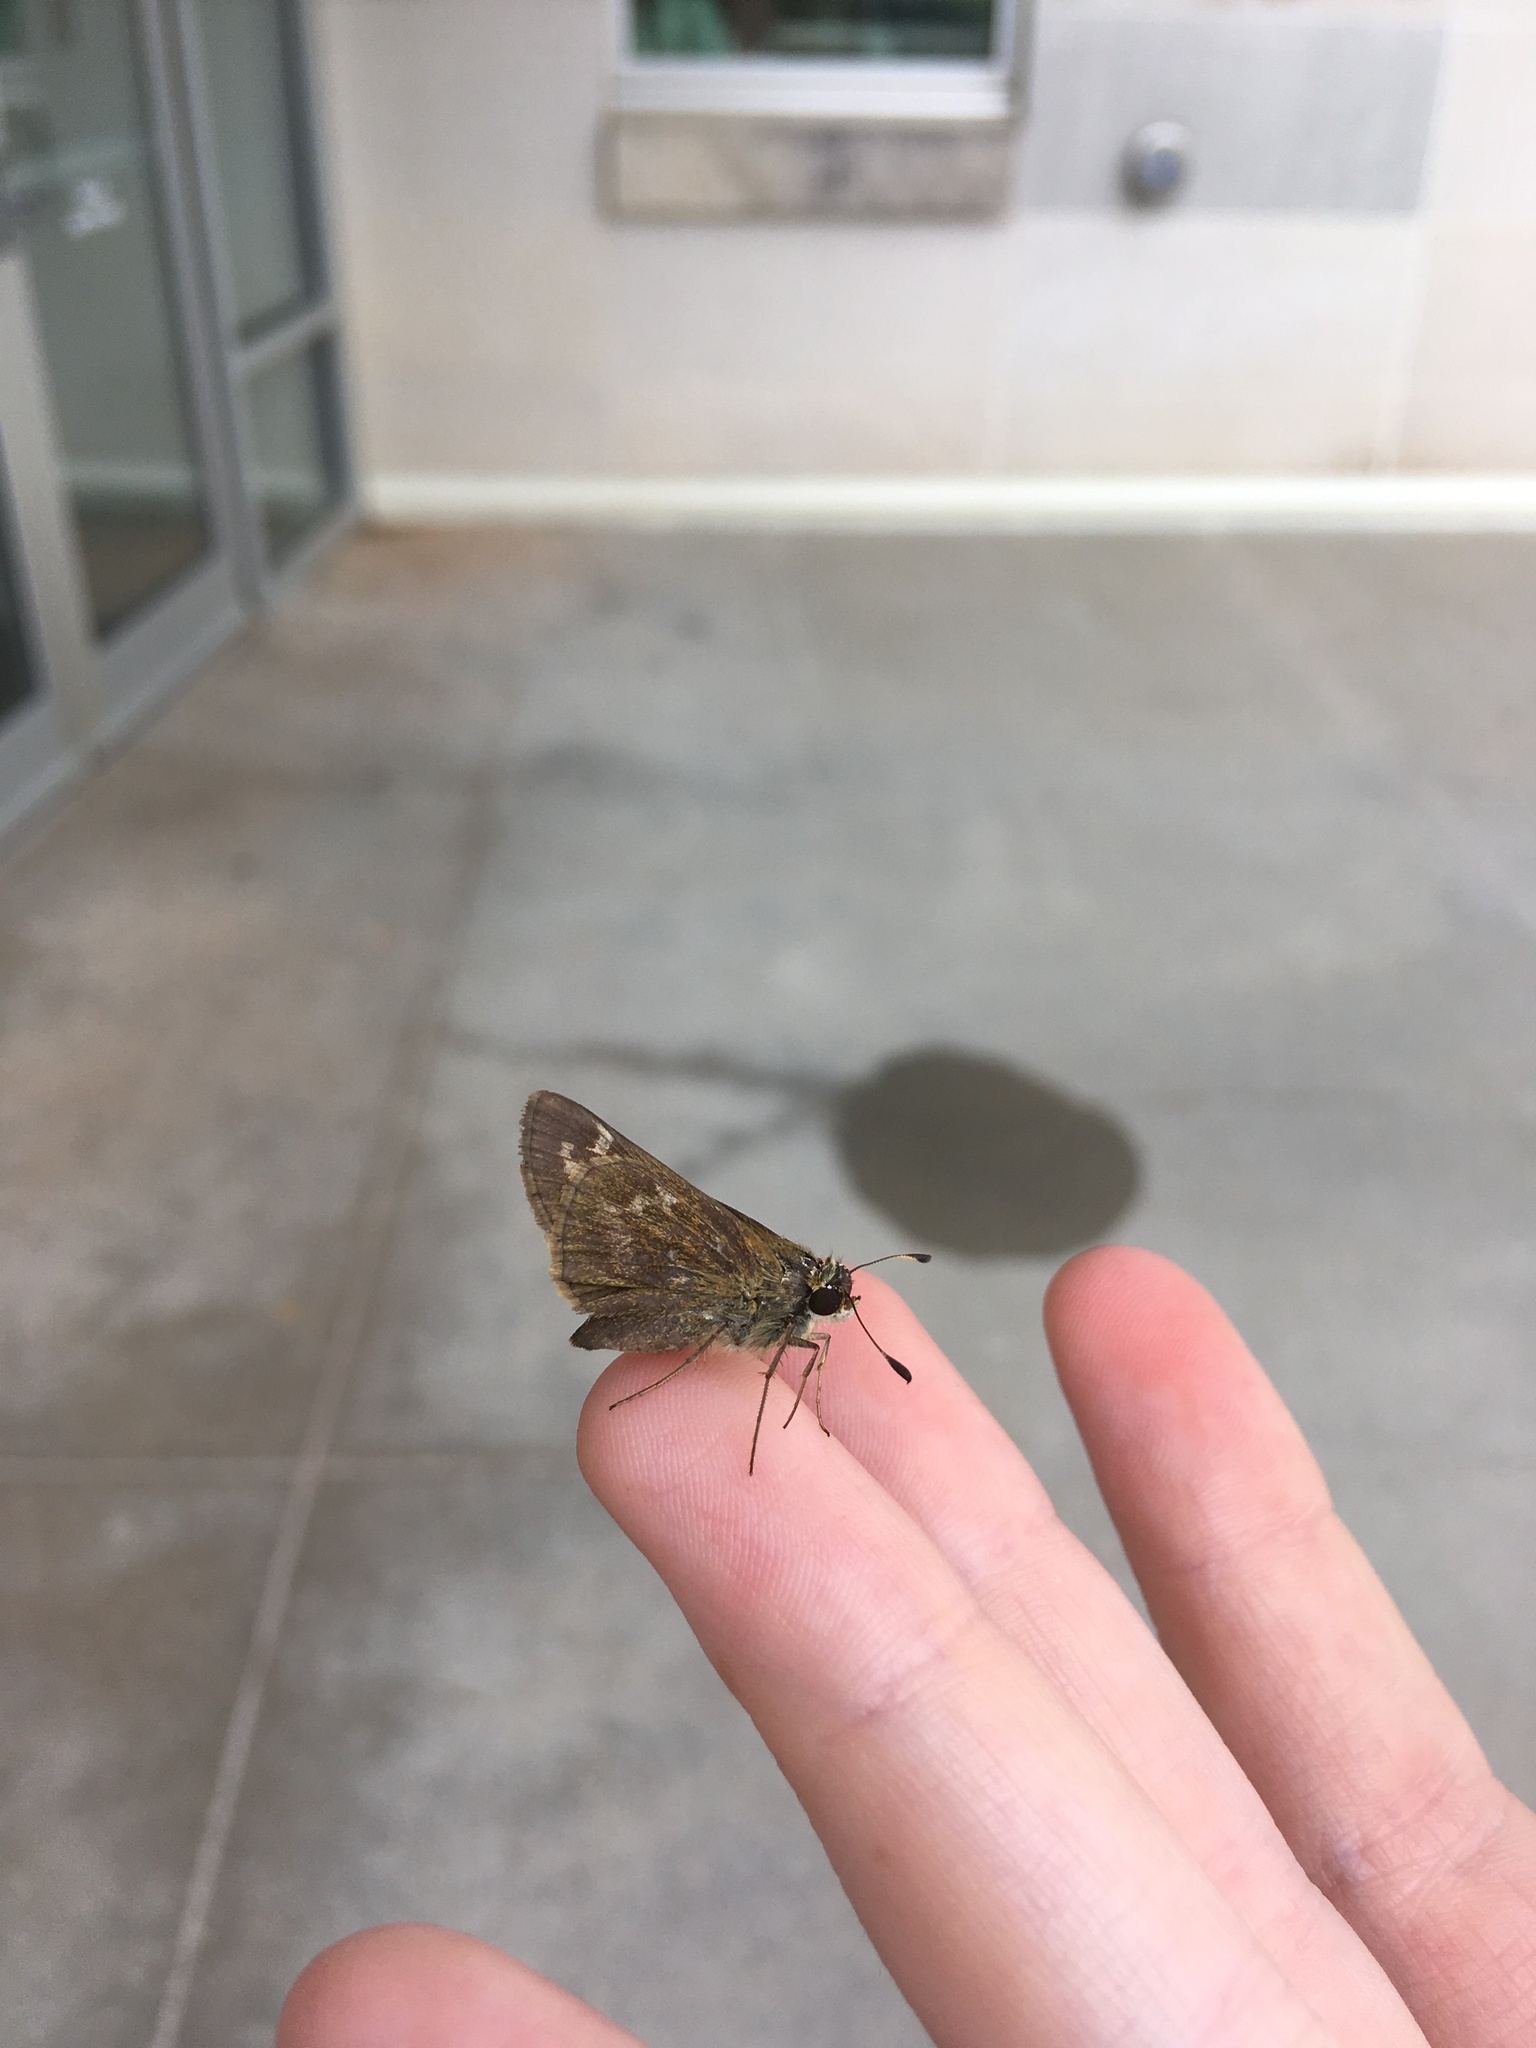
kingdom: Animalia
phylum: Arthropoda
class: Insecta
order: Lepidoptera
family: Hesperiidae
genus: Atalopedes
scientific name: Atalopedes
